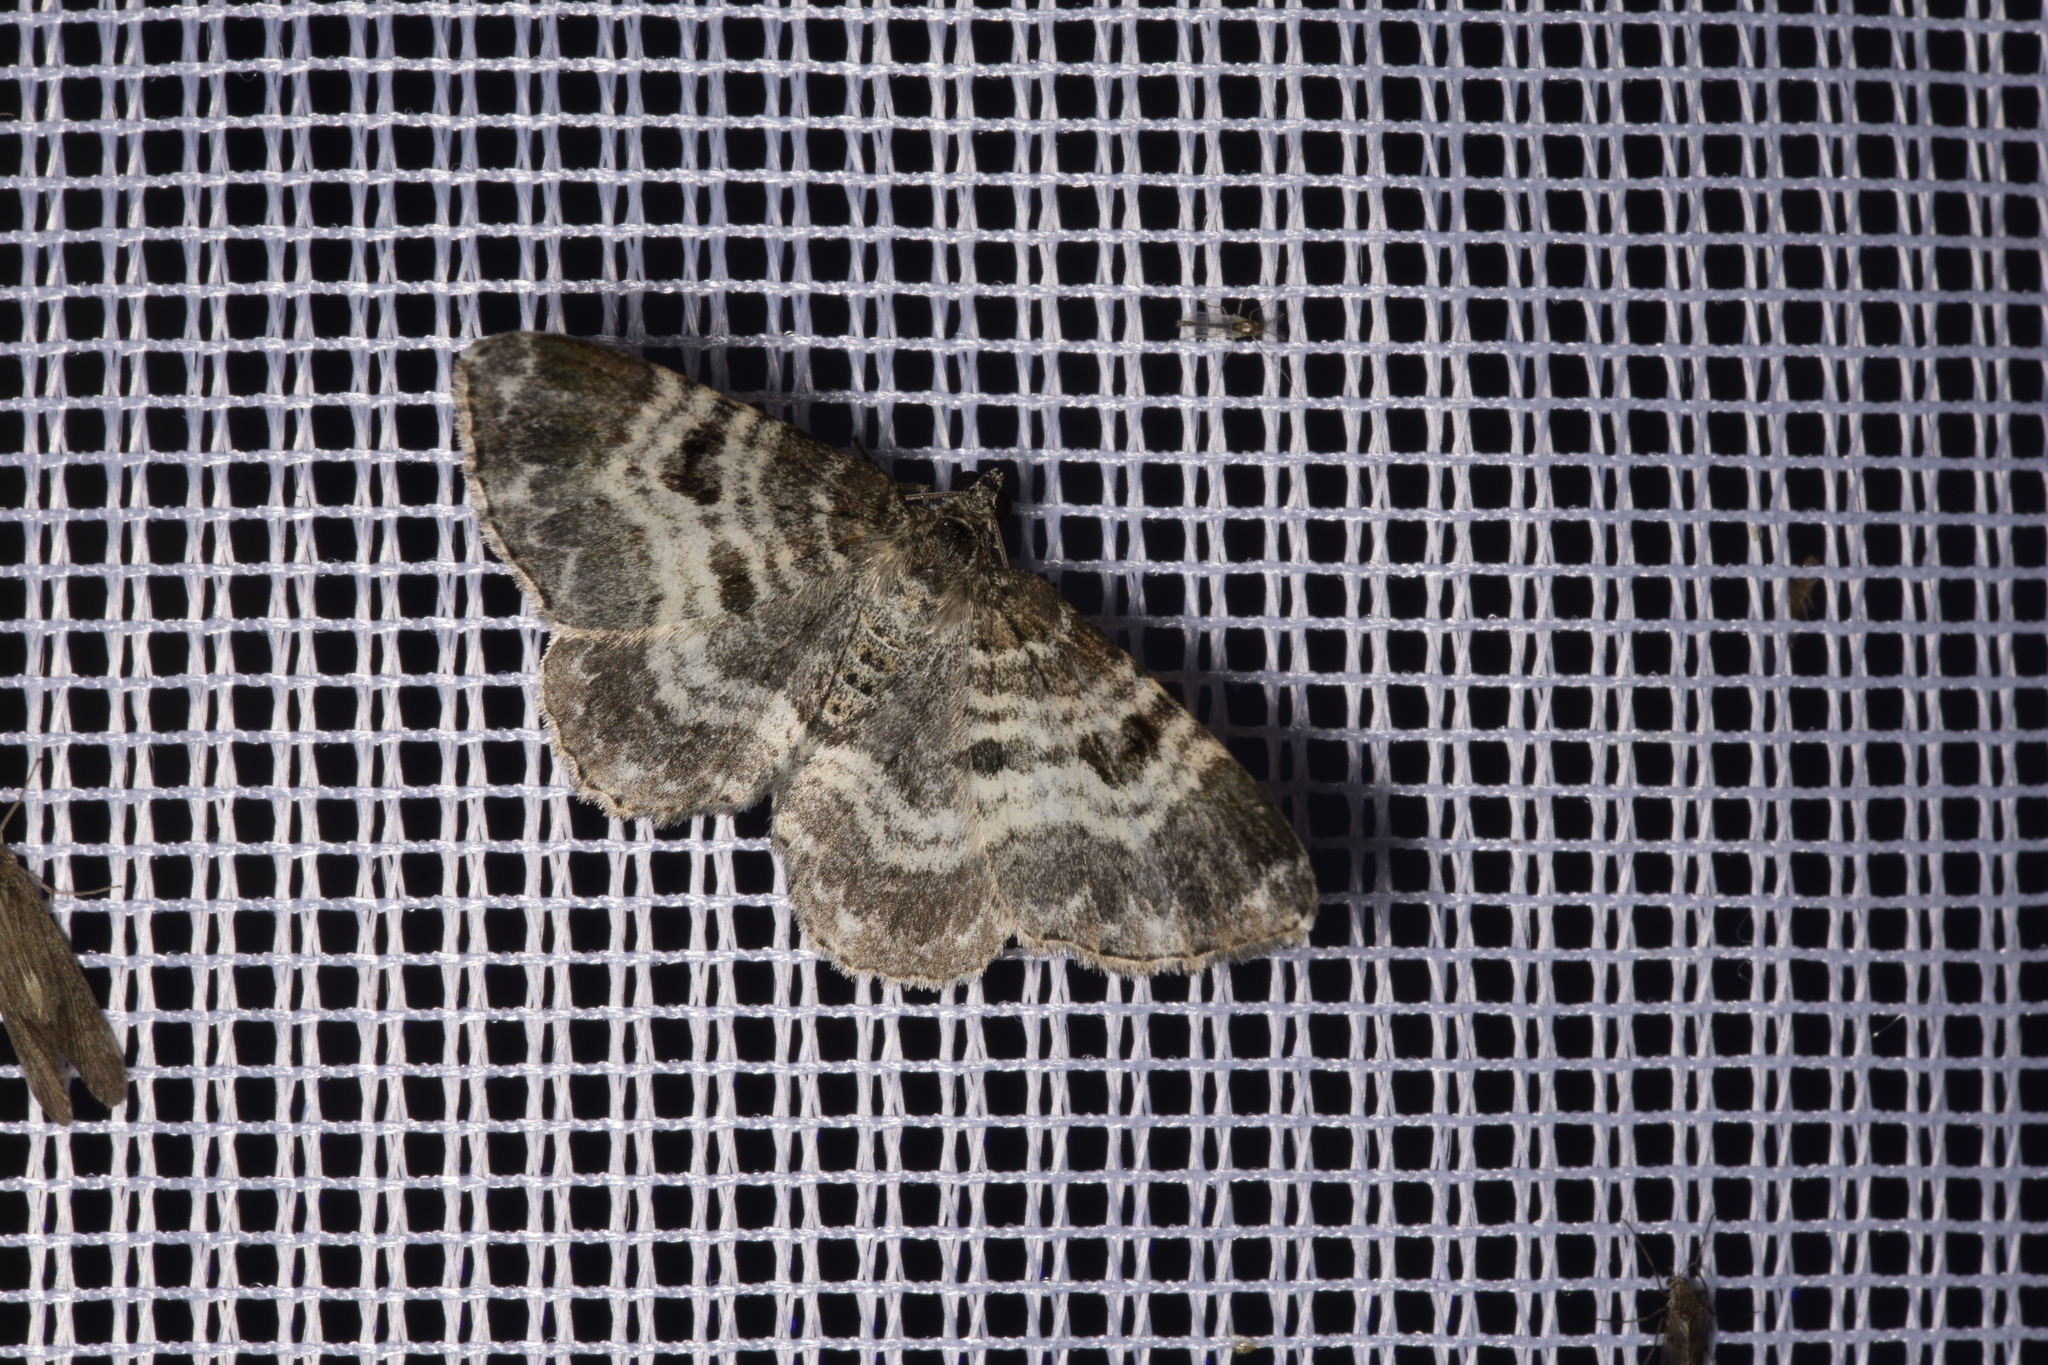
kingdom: Animalia
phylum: Arthropoda
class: Insecta
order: Lepidoptera
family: Geometridae
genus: Epirrhoe
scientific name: Epirrhoe alternata
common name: Common carpet
